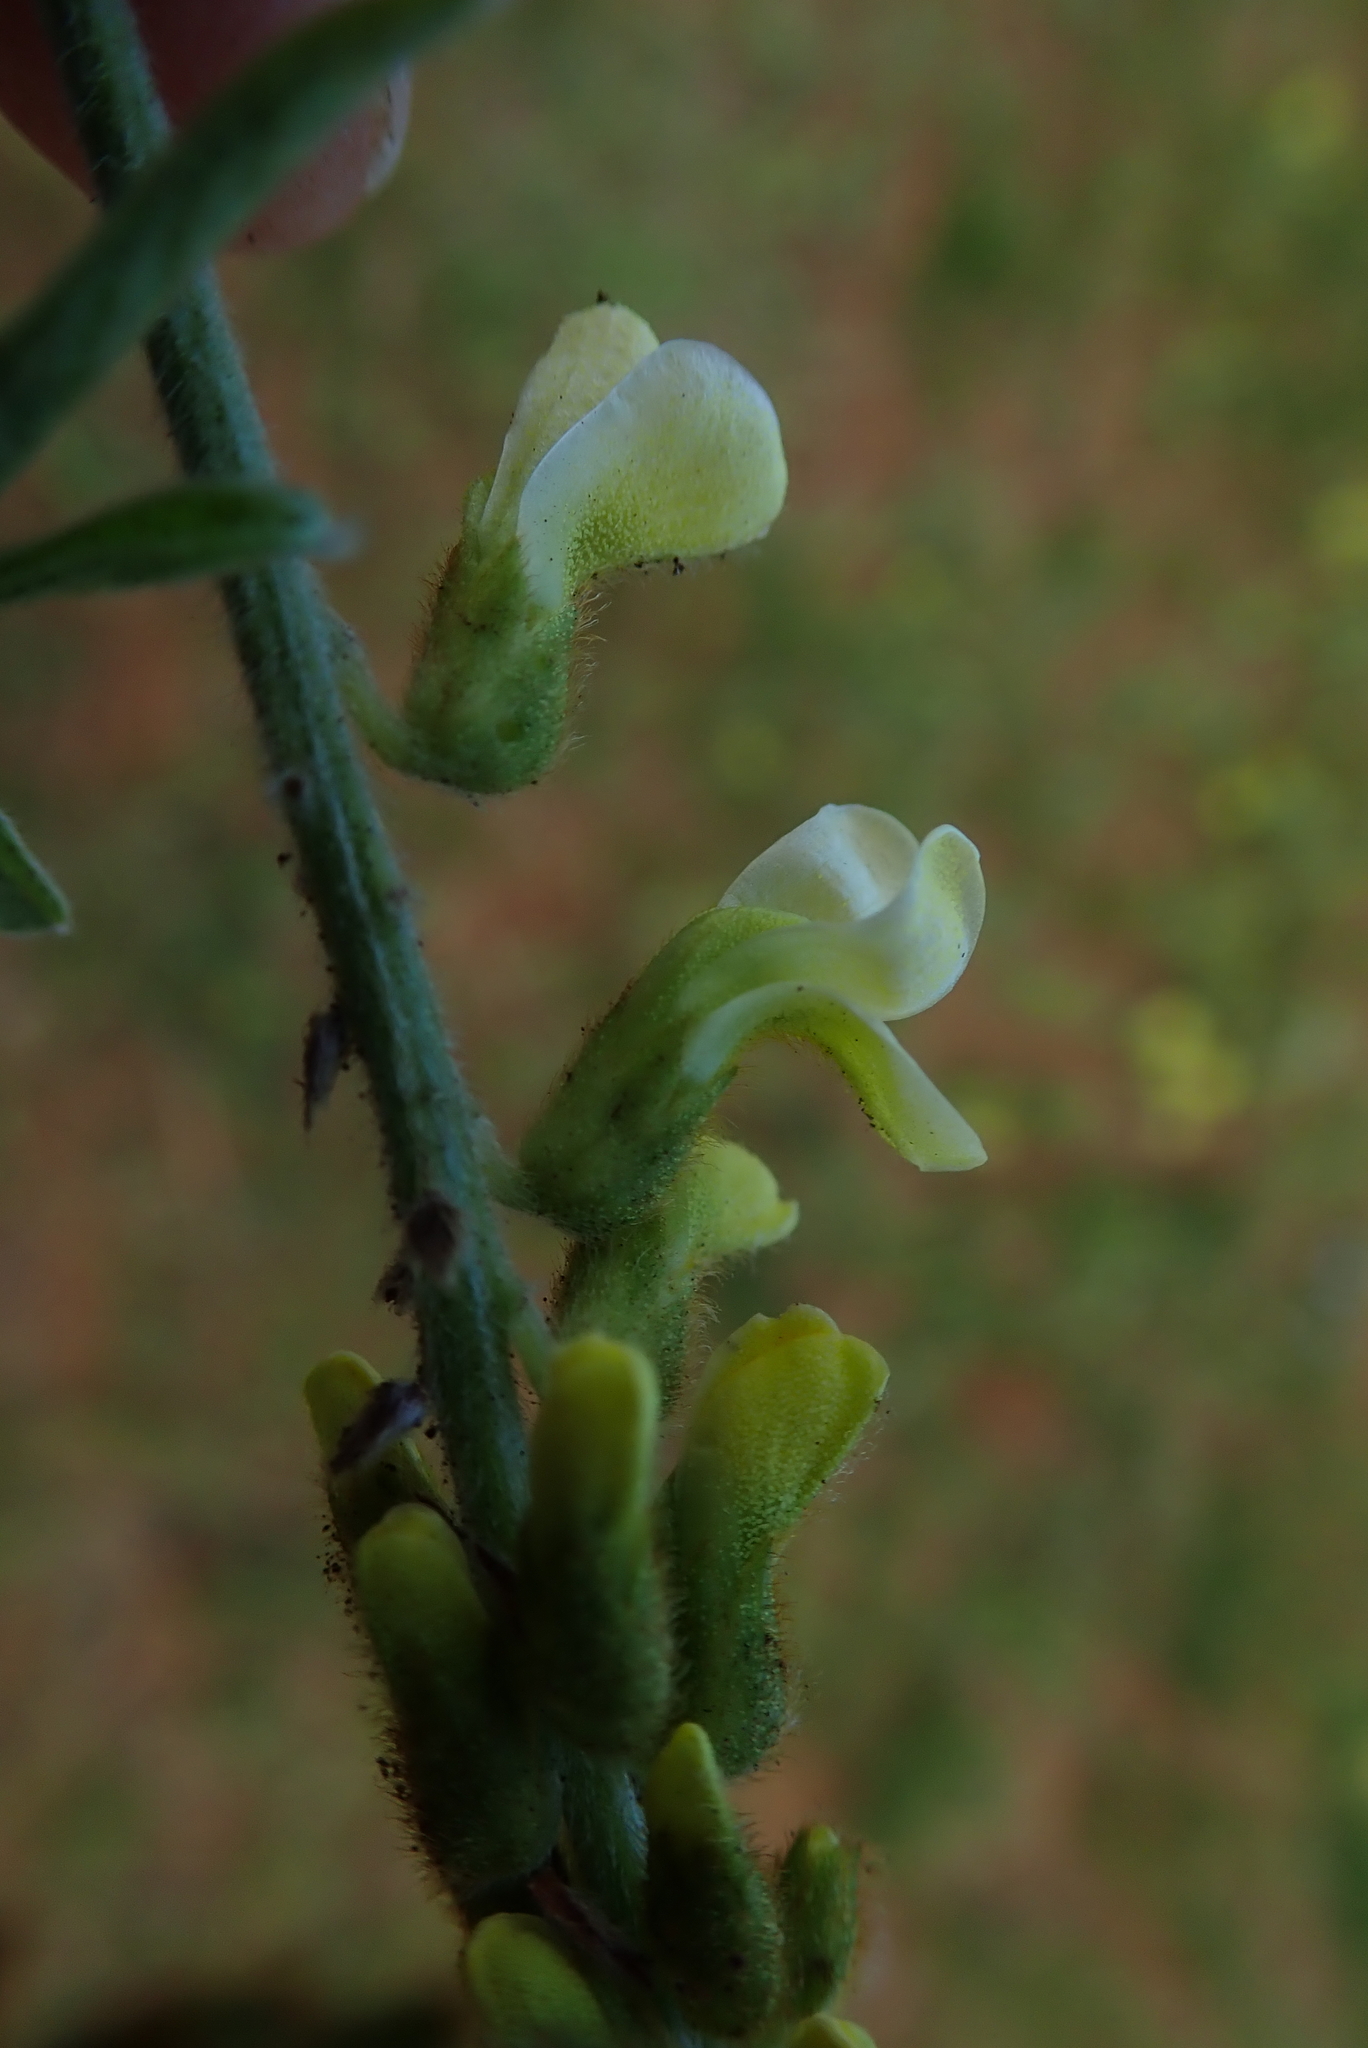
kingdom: Plantae
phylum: Tracheophyta
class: Magnoliopsida
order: Fabales
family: Fabaceae
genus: Eriosema
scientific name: Eriosema kraussianum
